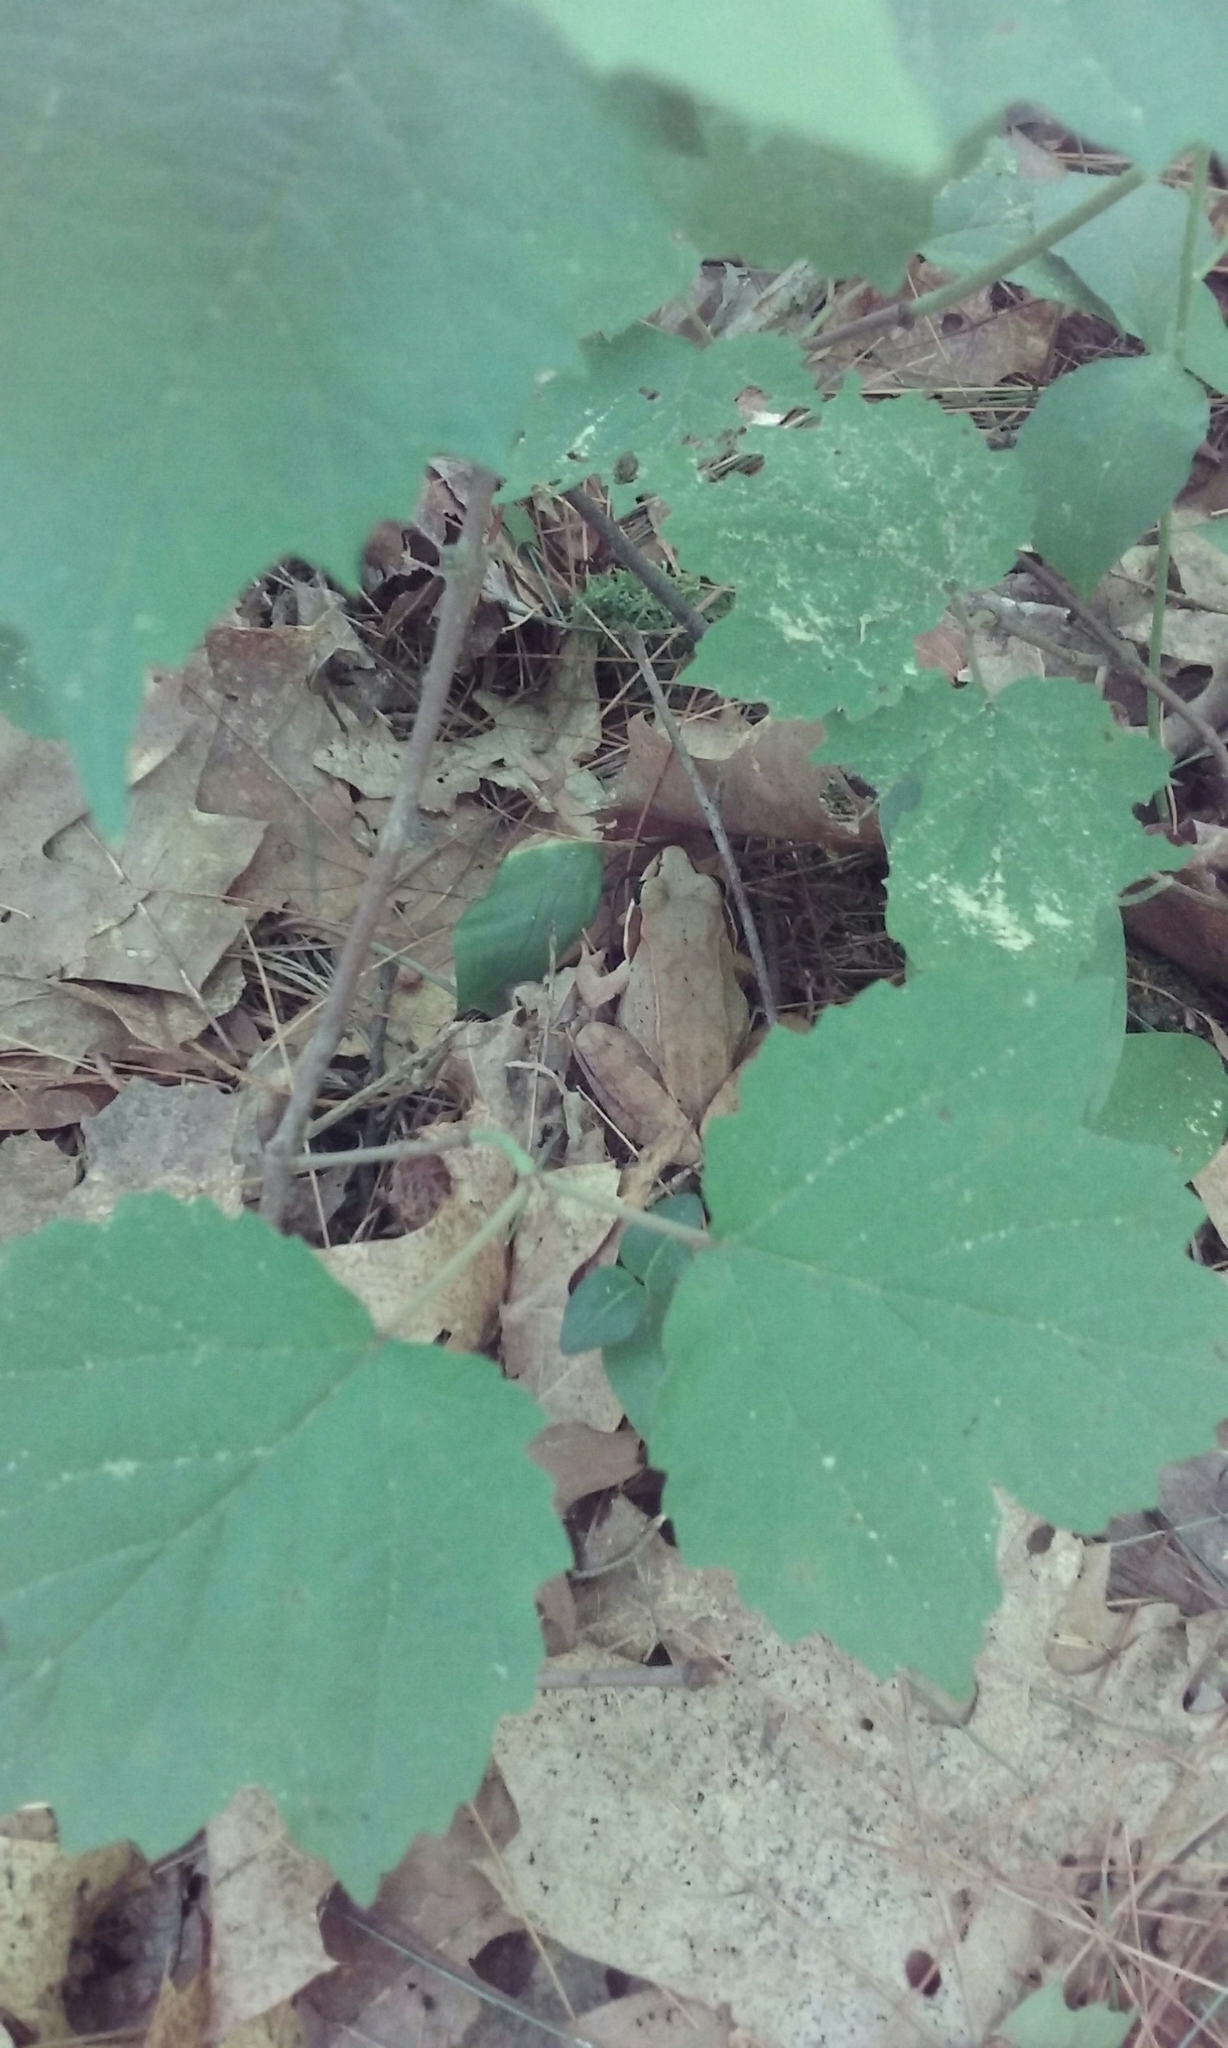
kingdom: Animalia
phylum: Chordata
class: Amphibia
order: Anura
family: Ranidae
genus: Lithobates
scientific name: Lithobates sylvaticus
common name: Wood frog
